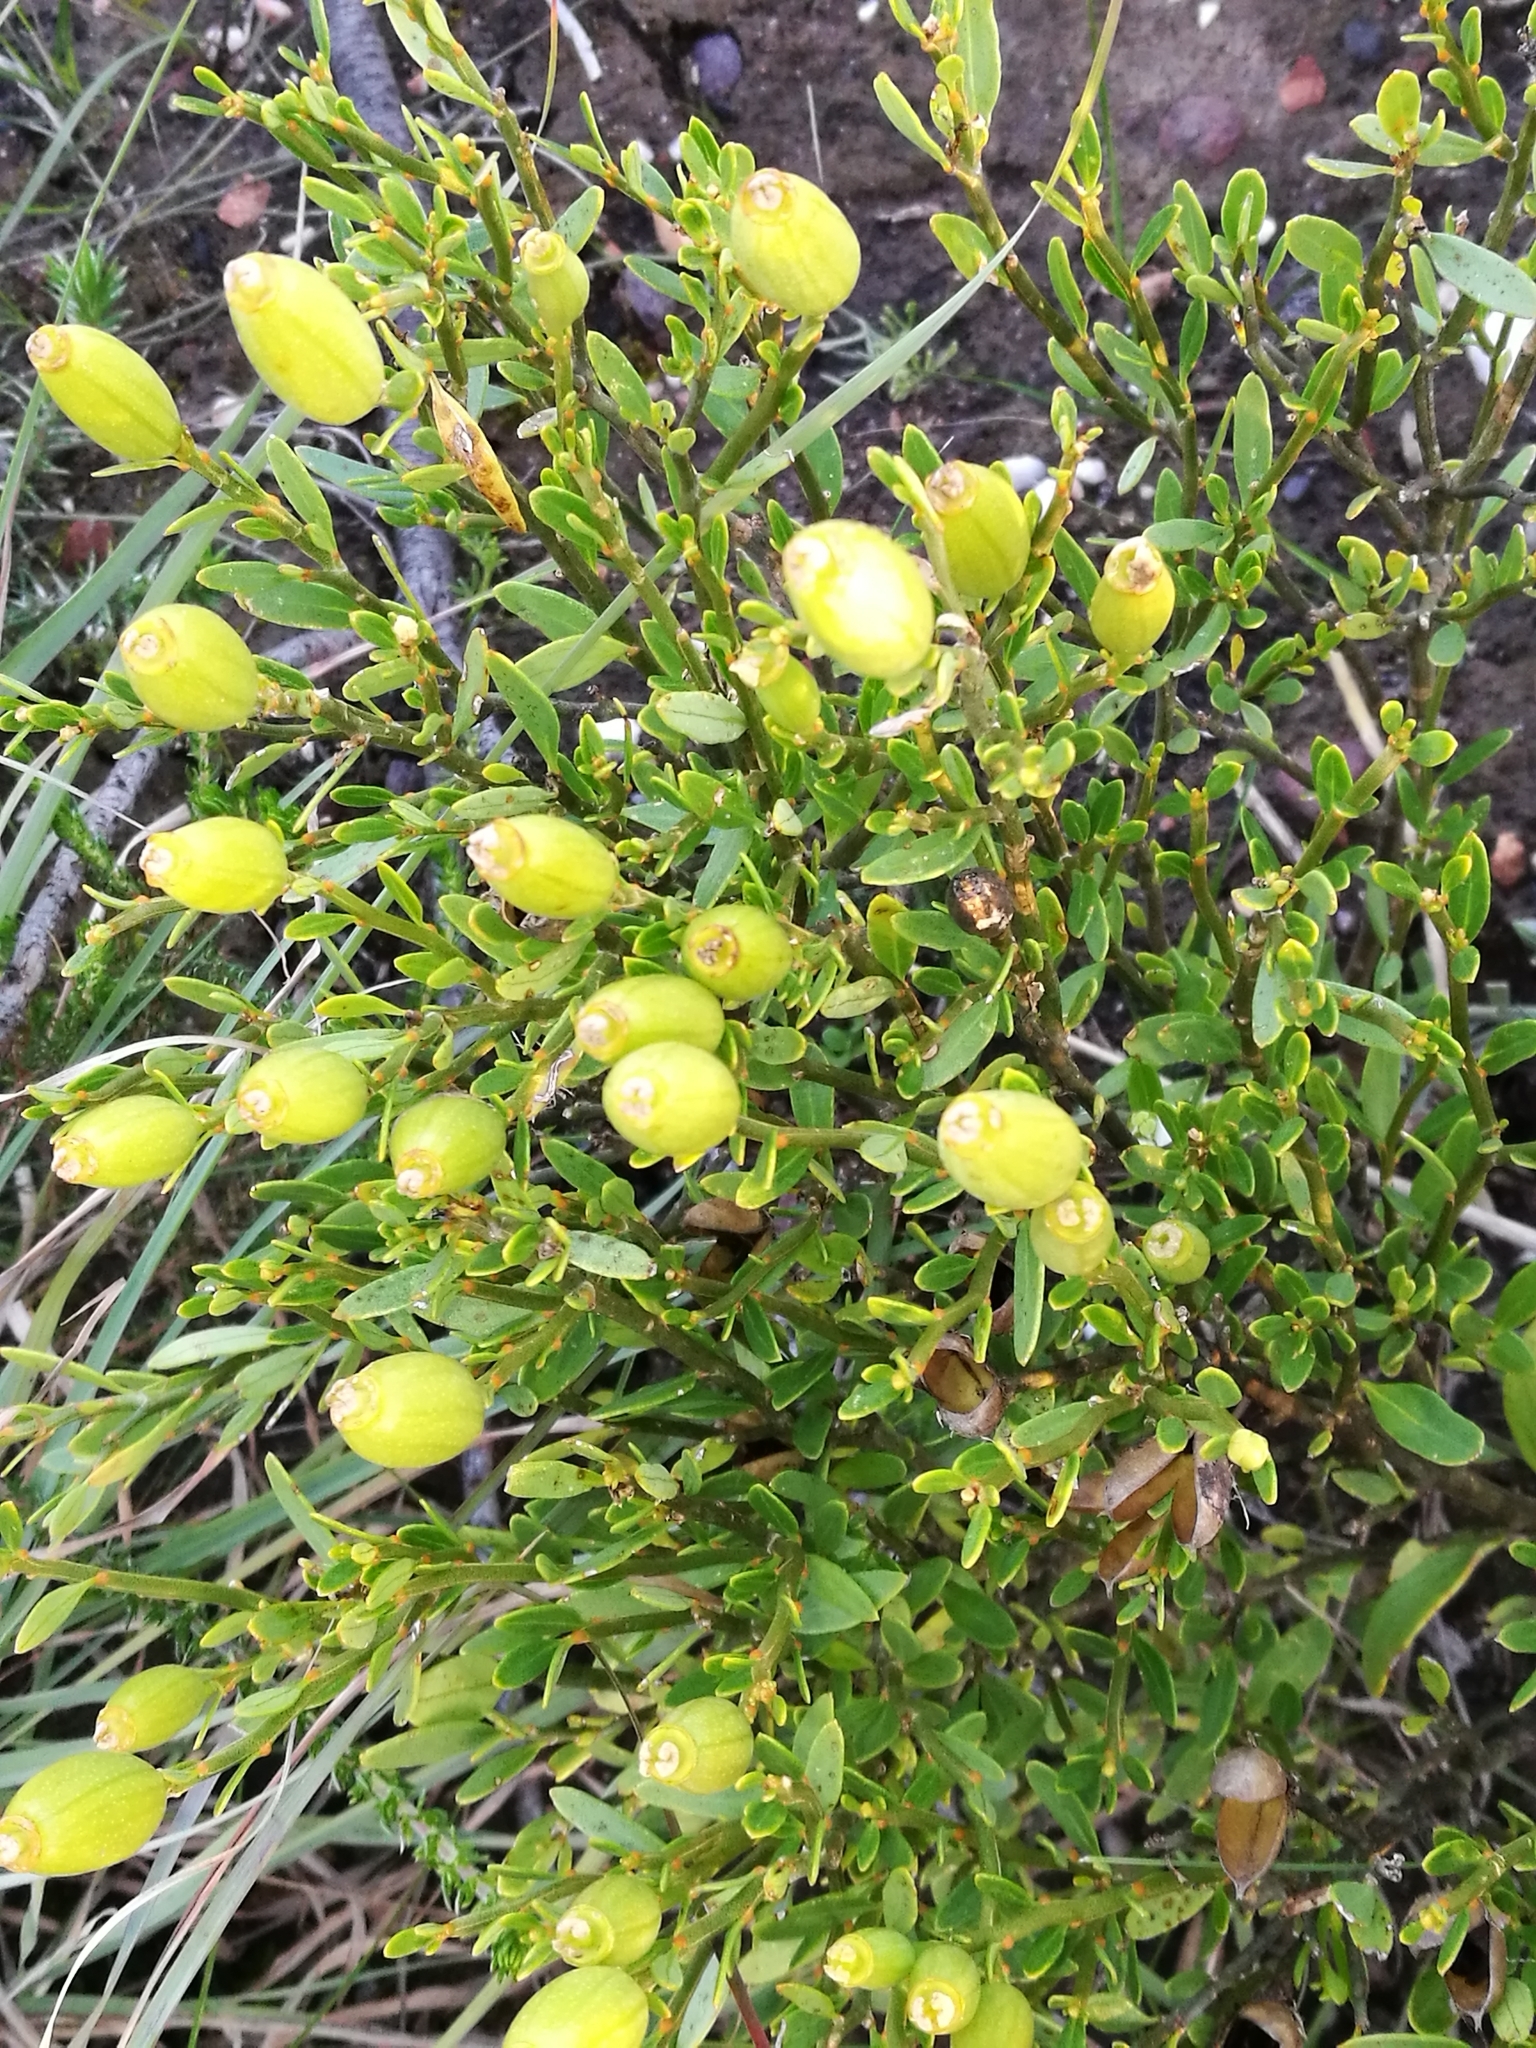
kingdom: Plantae
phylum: Tracheophyta
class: Magnoliopsida
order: Solanales
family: Montiniaceae
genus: Montinia
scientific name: Montinia caryophyllacea
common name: Wild clove-bush
